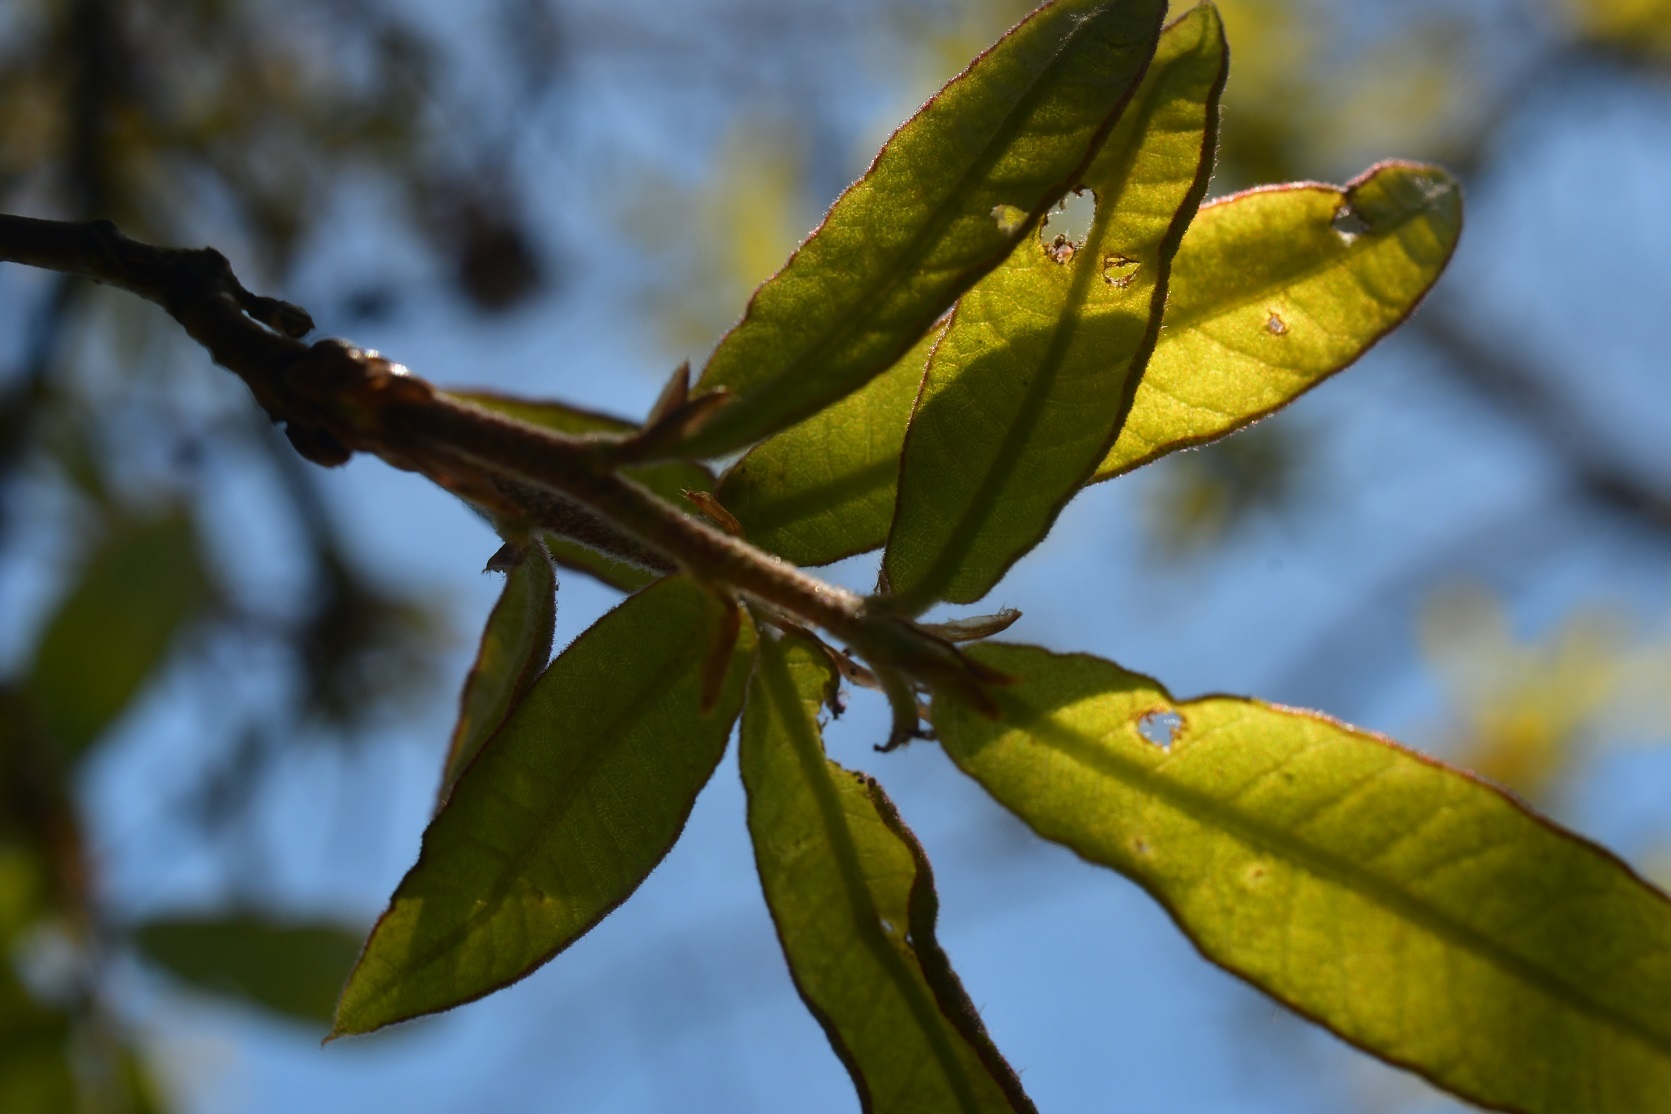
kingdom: Plantae
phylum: Tracheophyta
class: Magnoliopsida
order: Fagales
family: Fagaceae
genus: Quercus
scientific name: Quercus crispipilis
